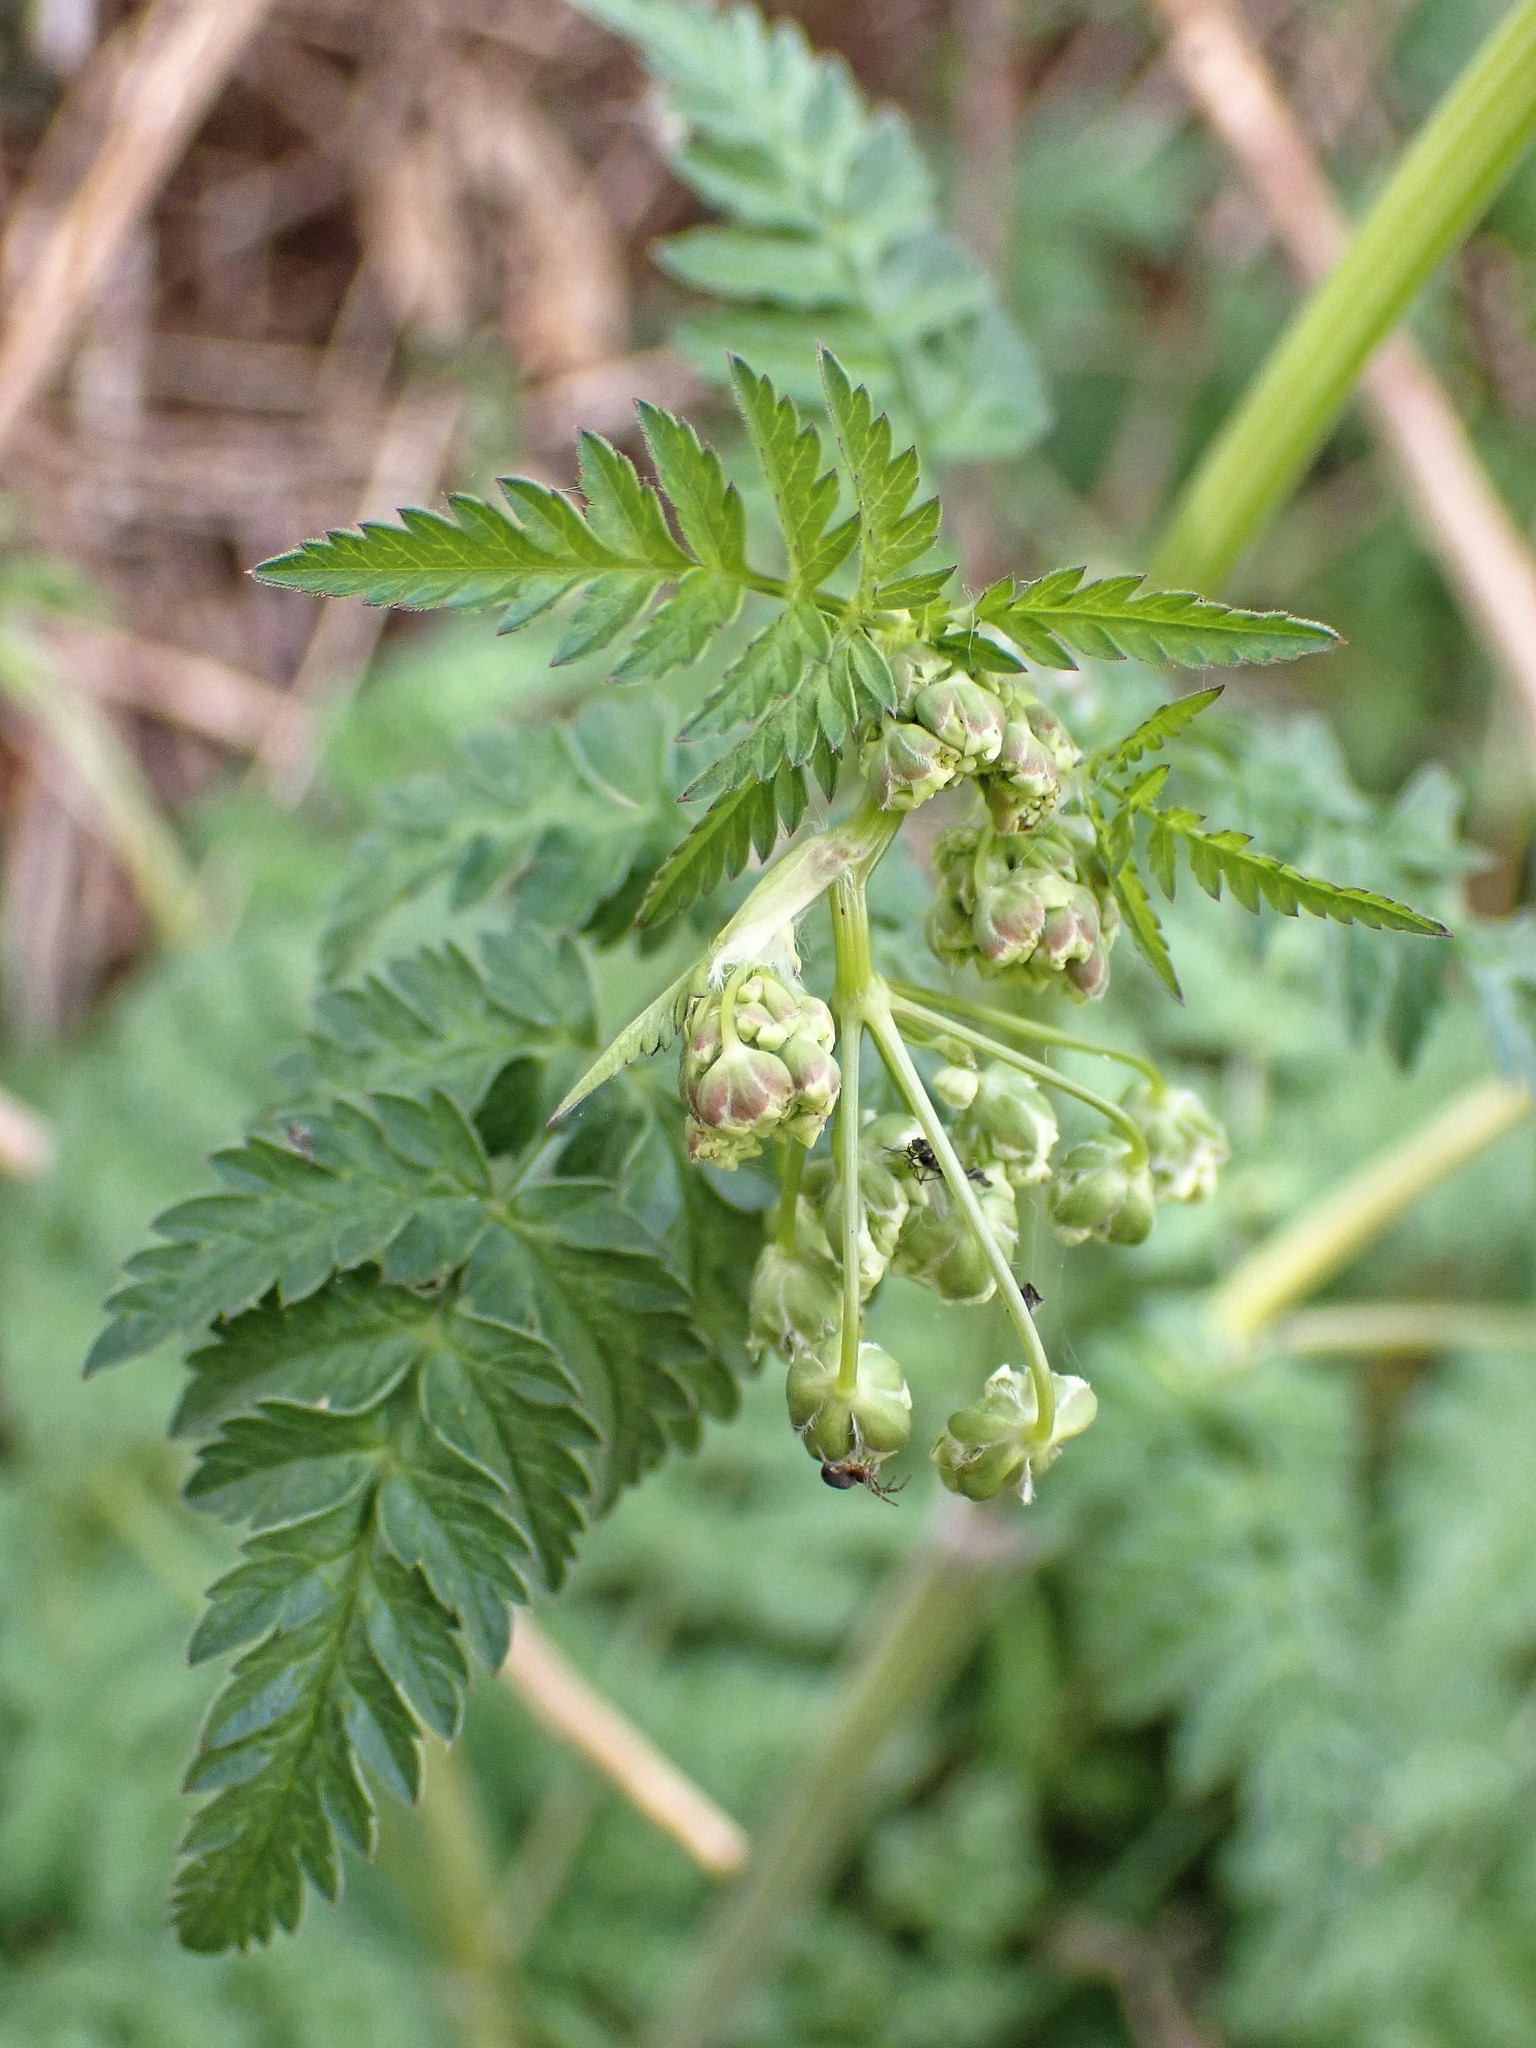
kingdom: Plantae
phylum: Tracheophyta
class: Magnoliopsida
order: Apiales
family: Apiaceae
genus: Anthriscus
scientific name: Anthriscus sylvestris
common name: Cow parsley
